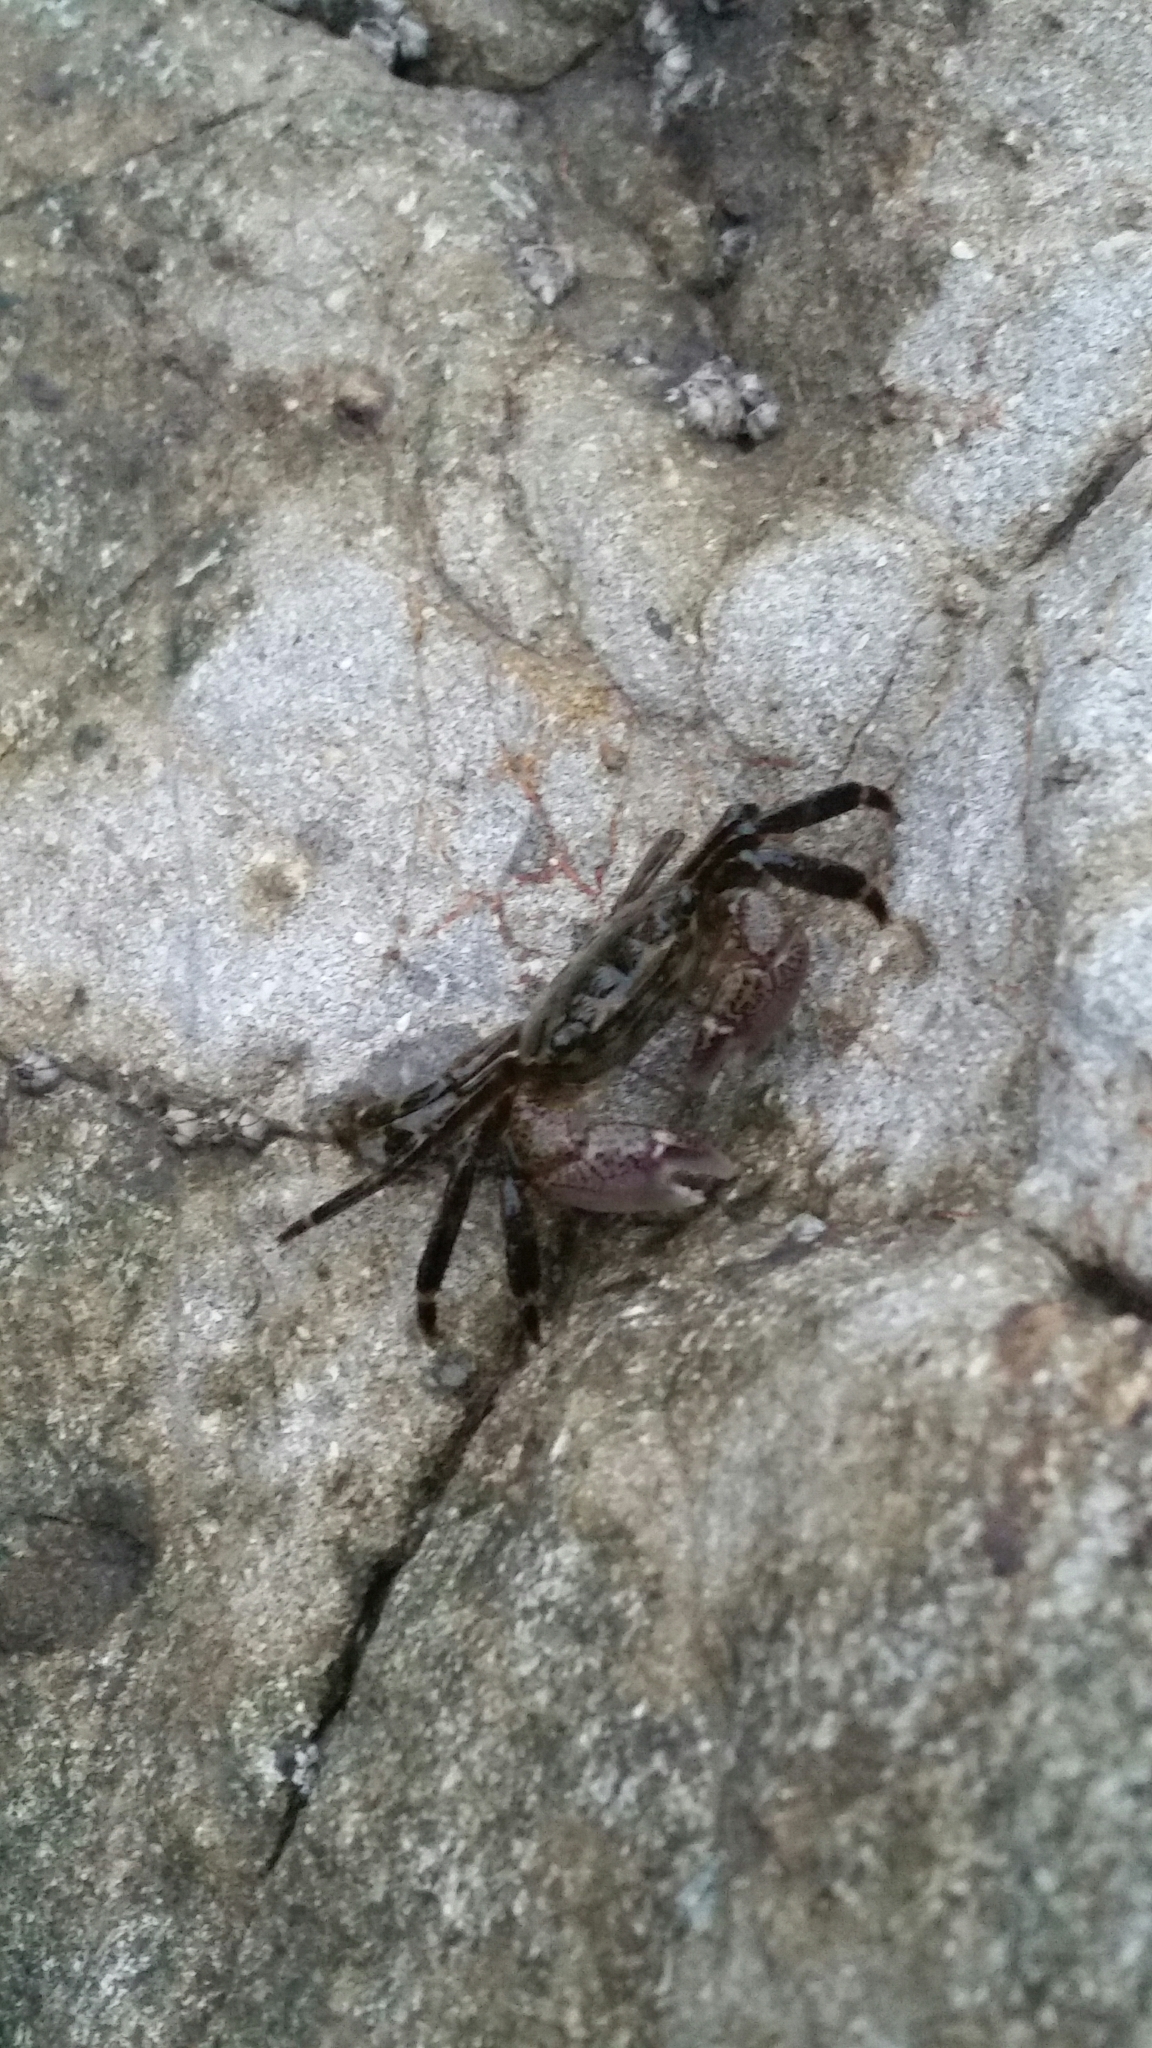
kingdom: Animalia
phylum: Arthropoda
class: Malacostraca
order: Decapoda
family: Grapsidae
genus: Pachygrapsus
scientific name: Pachygrapsus crassipes
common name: Striped shore crab
